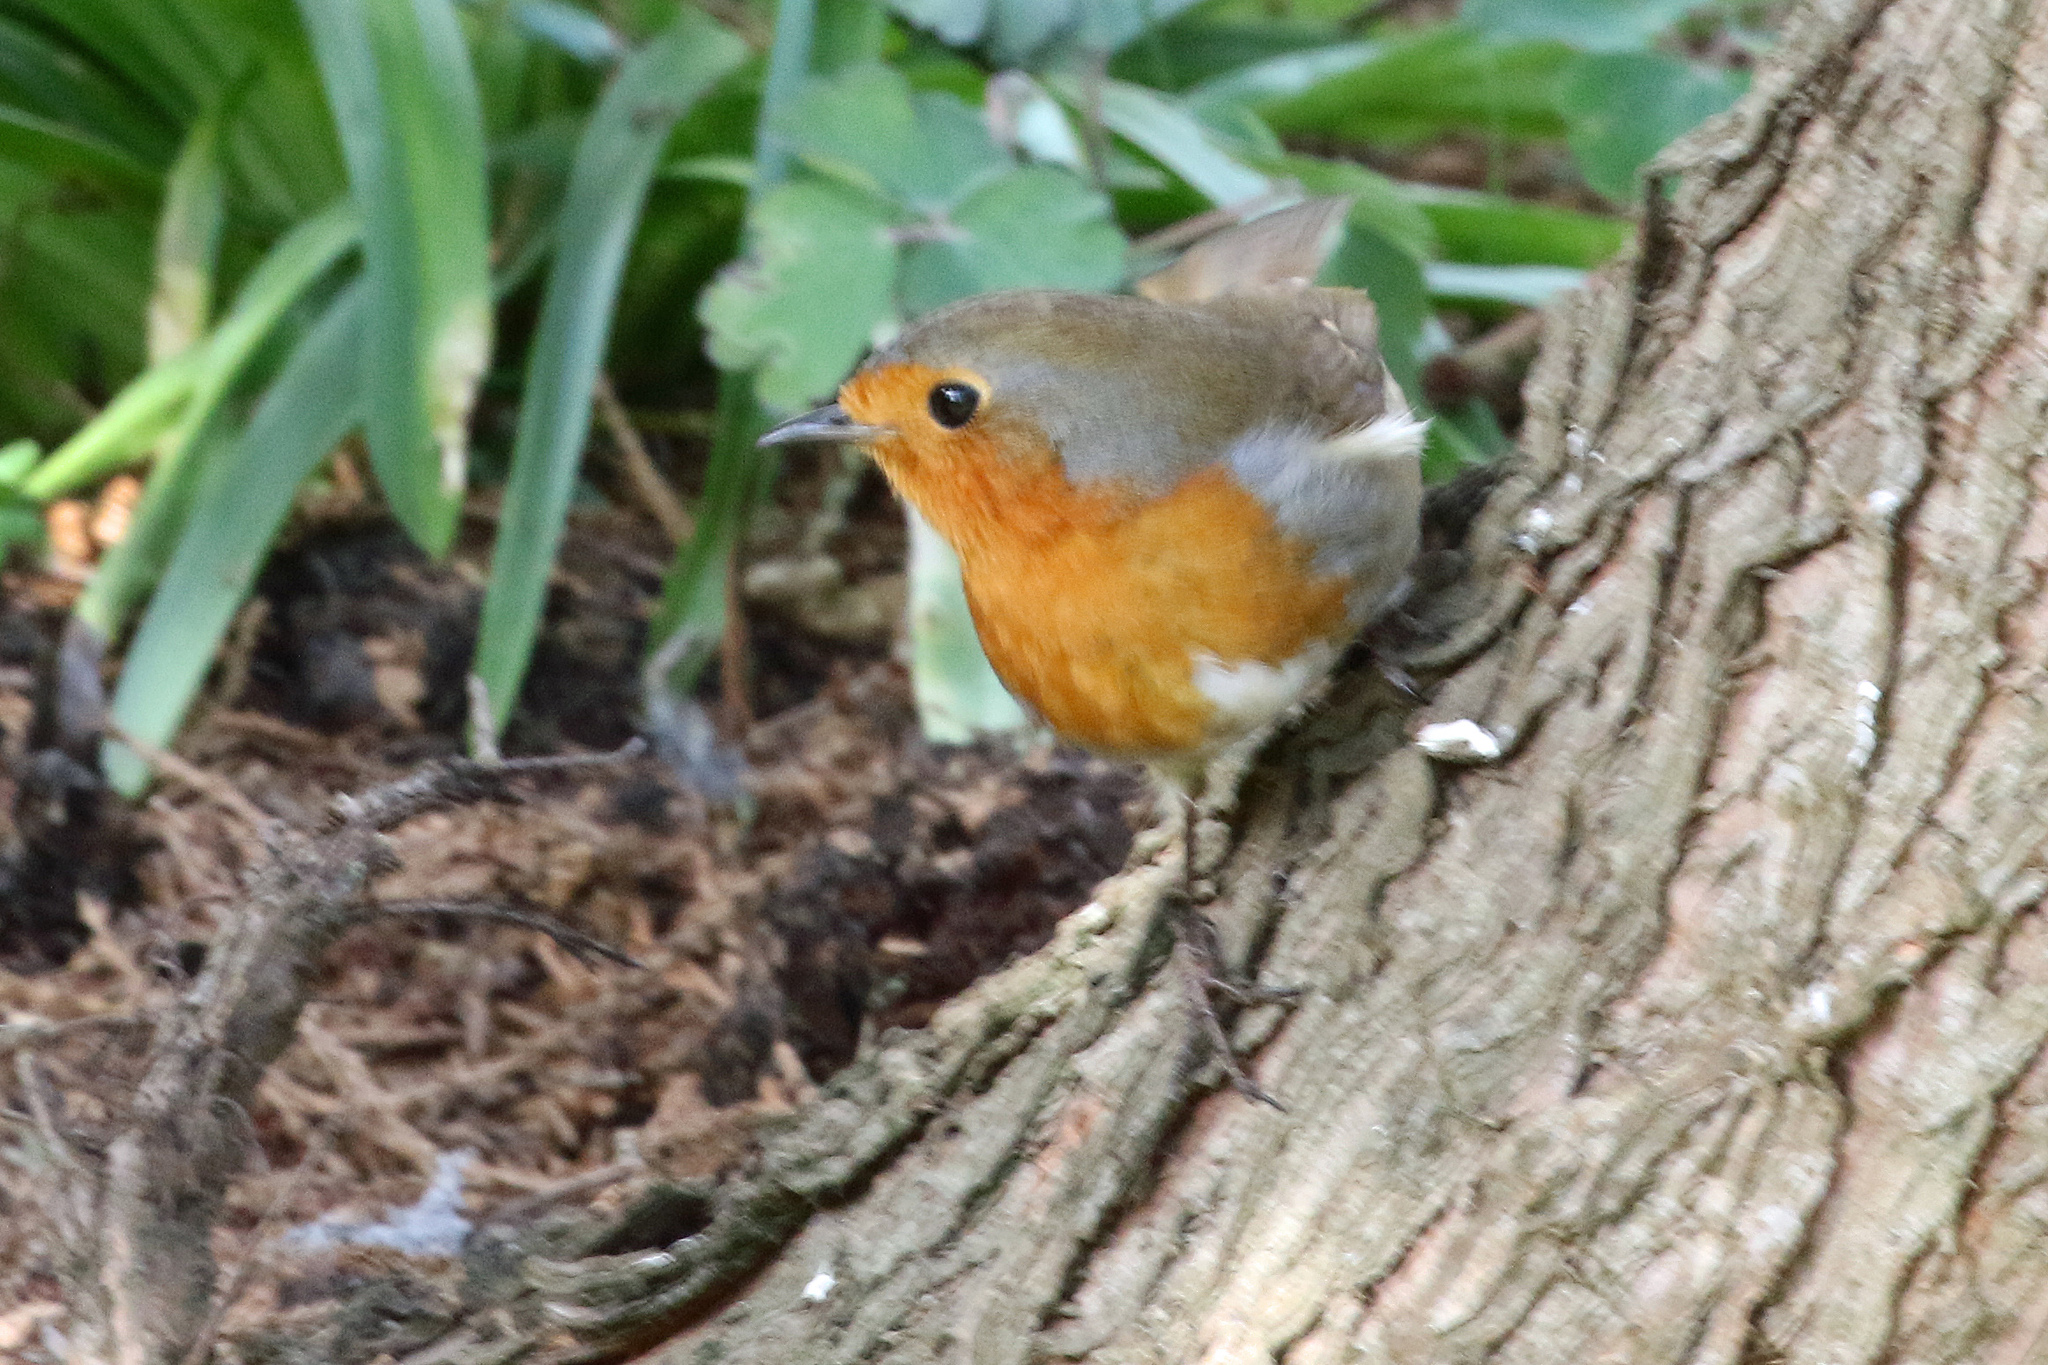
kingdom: Animalia
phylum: Chordata
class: Aves
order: Passeriformes
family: Muscicapidae
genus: Erithacus
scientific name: Erithacus rubecula
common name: European robin
